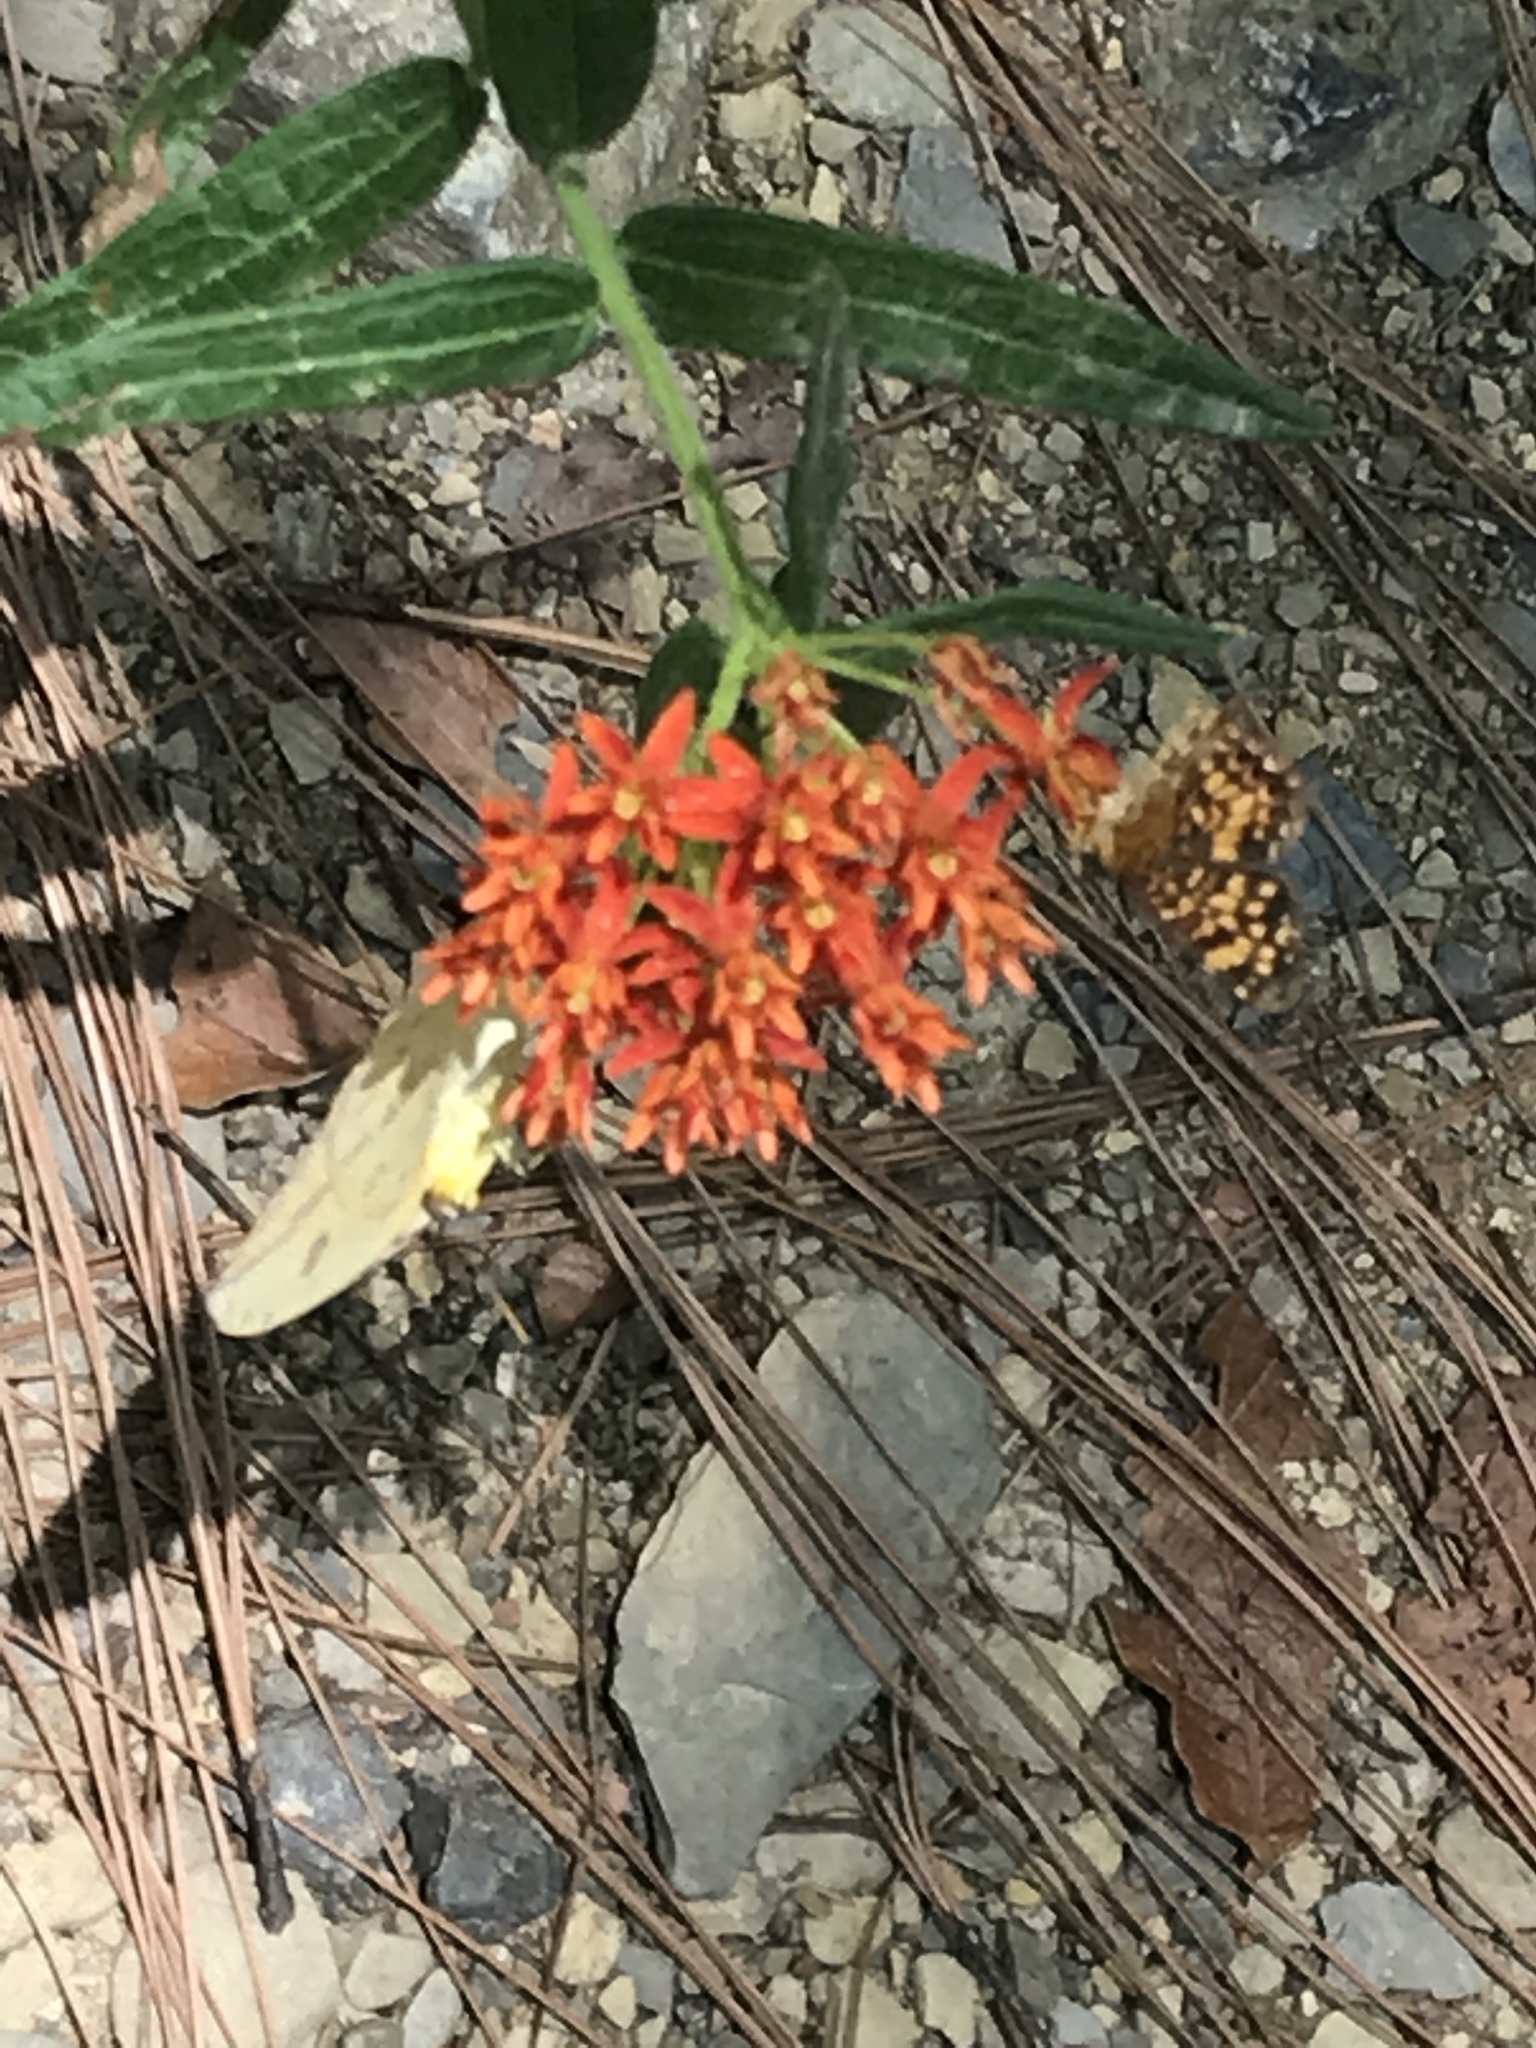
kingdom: Plantae
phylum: Tracheophyta
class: Magnoliopsida
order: Gentianales
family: Apocynaceae
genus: Asclepias
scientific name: Asclepias tuberosa
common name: Butterfly milkweed
